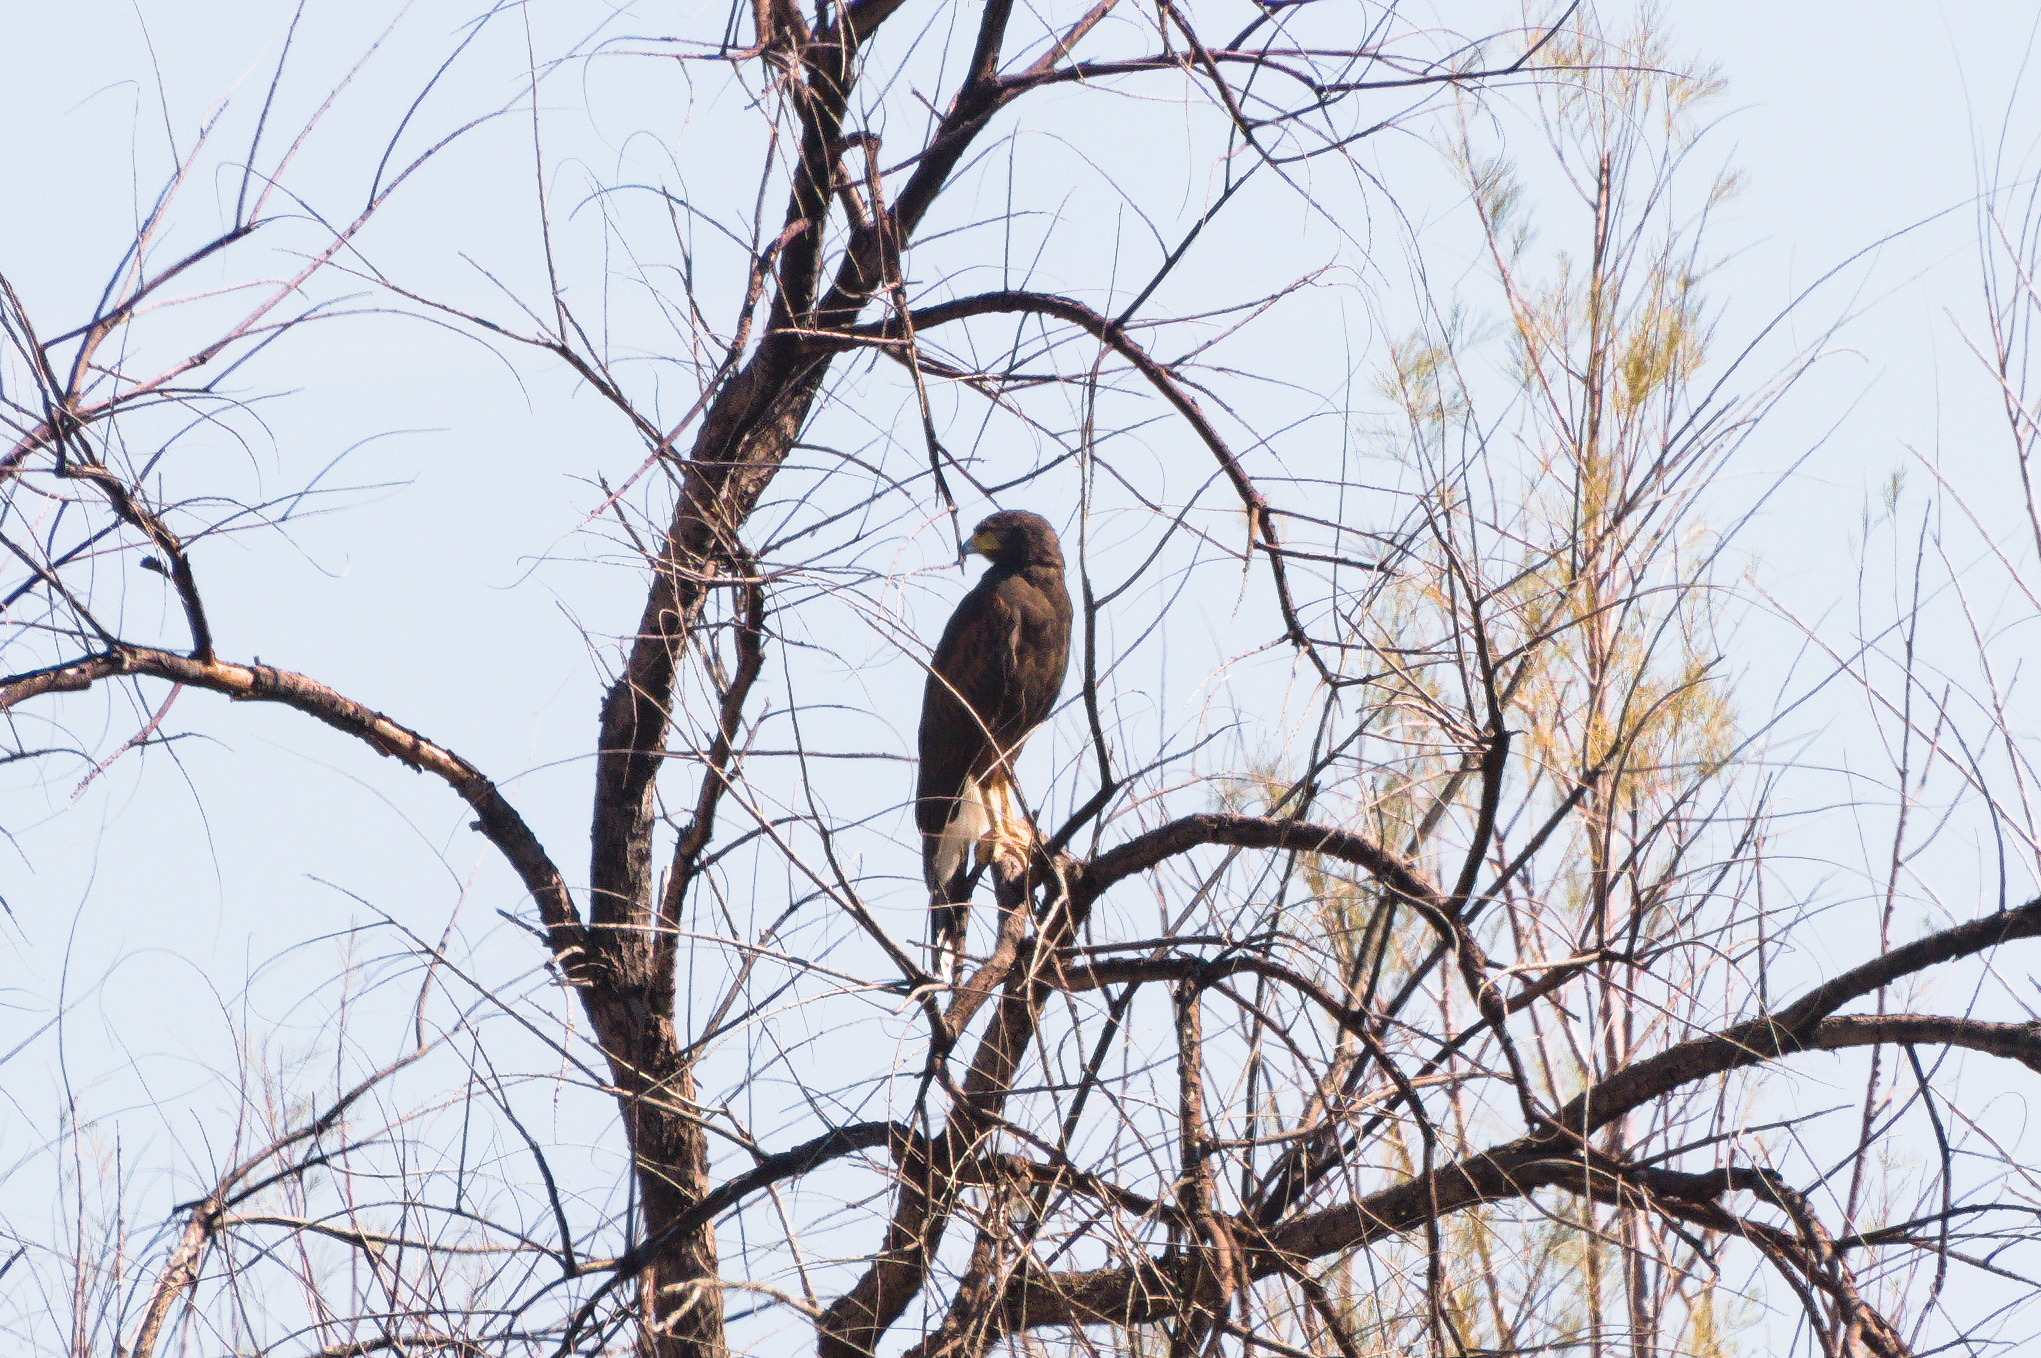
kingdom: Animalia
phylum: Chordata
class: Aves
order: Accipitriformes
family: Accipitridae
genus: Parabuteo
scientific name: Parabuteo unicinctus
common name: Harris's hawk
